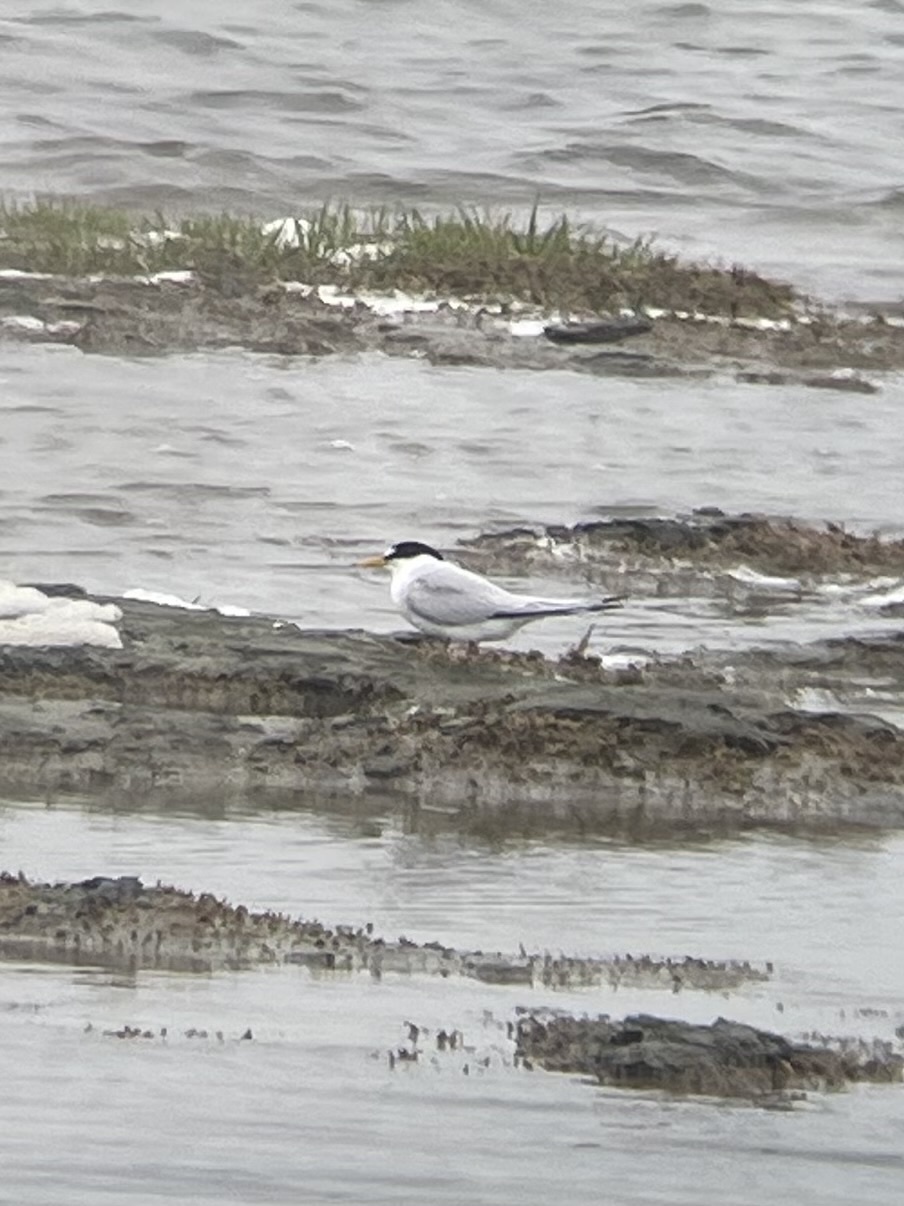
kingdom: Animalia
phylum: Chordata
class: Aves
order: Charadriiformes
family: Laridae
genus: Sternula
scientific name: Sternula antillarum
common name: Least tern
